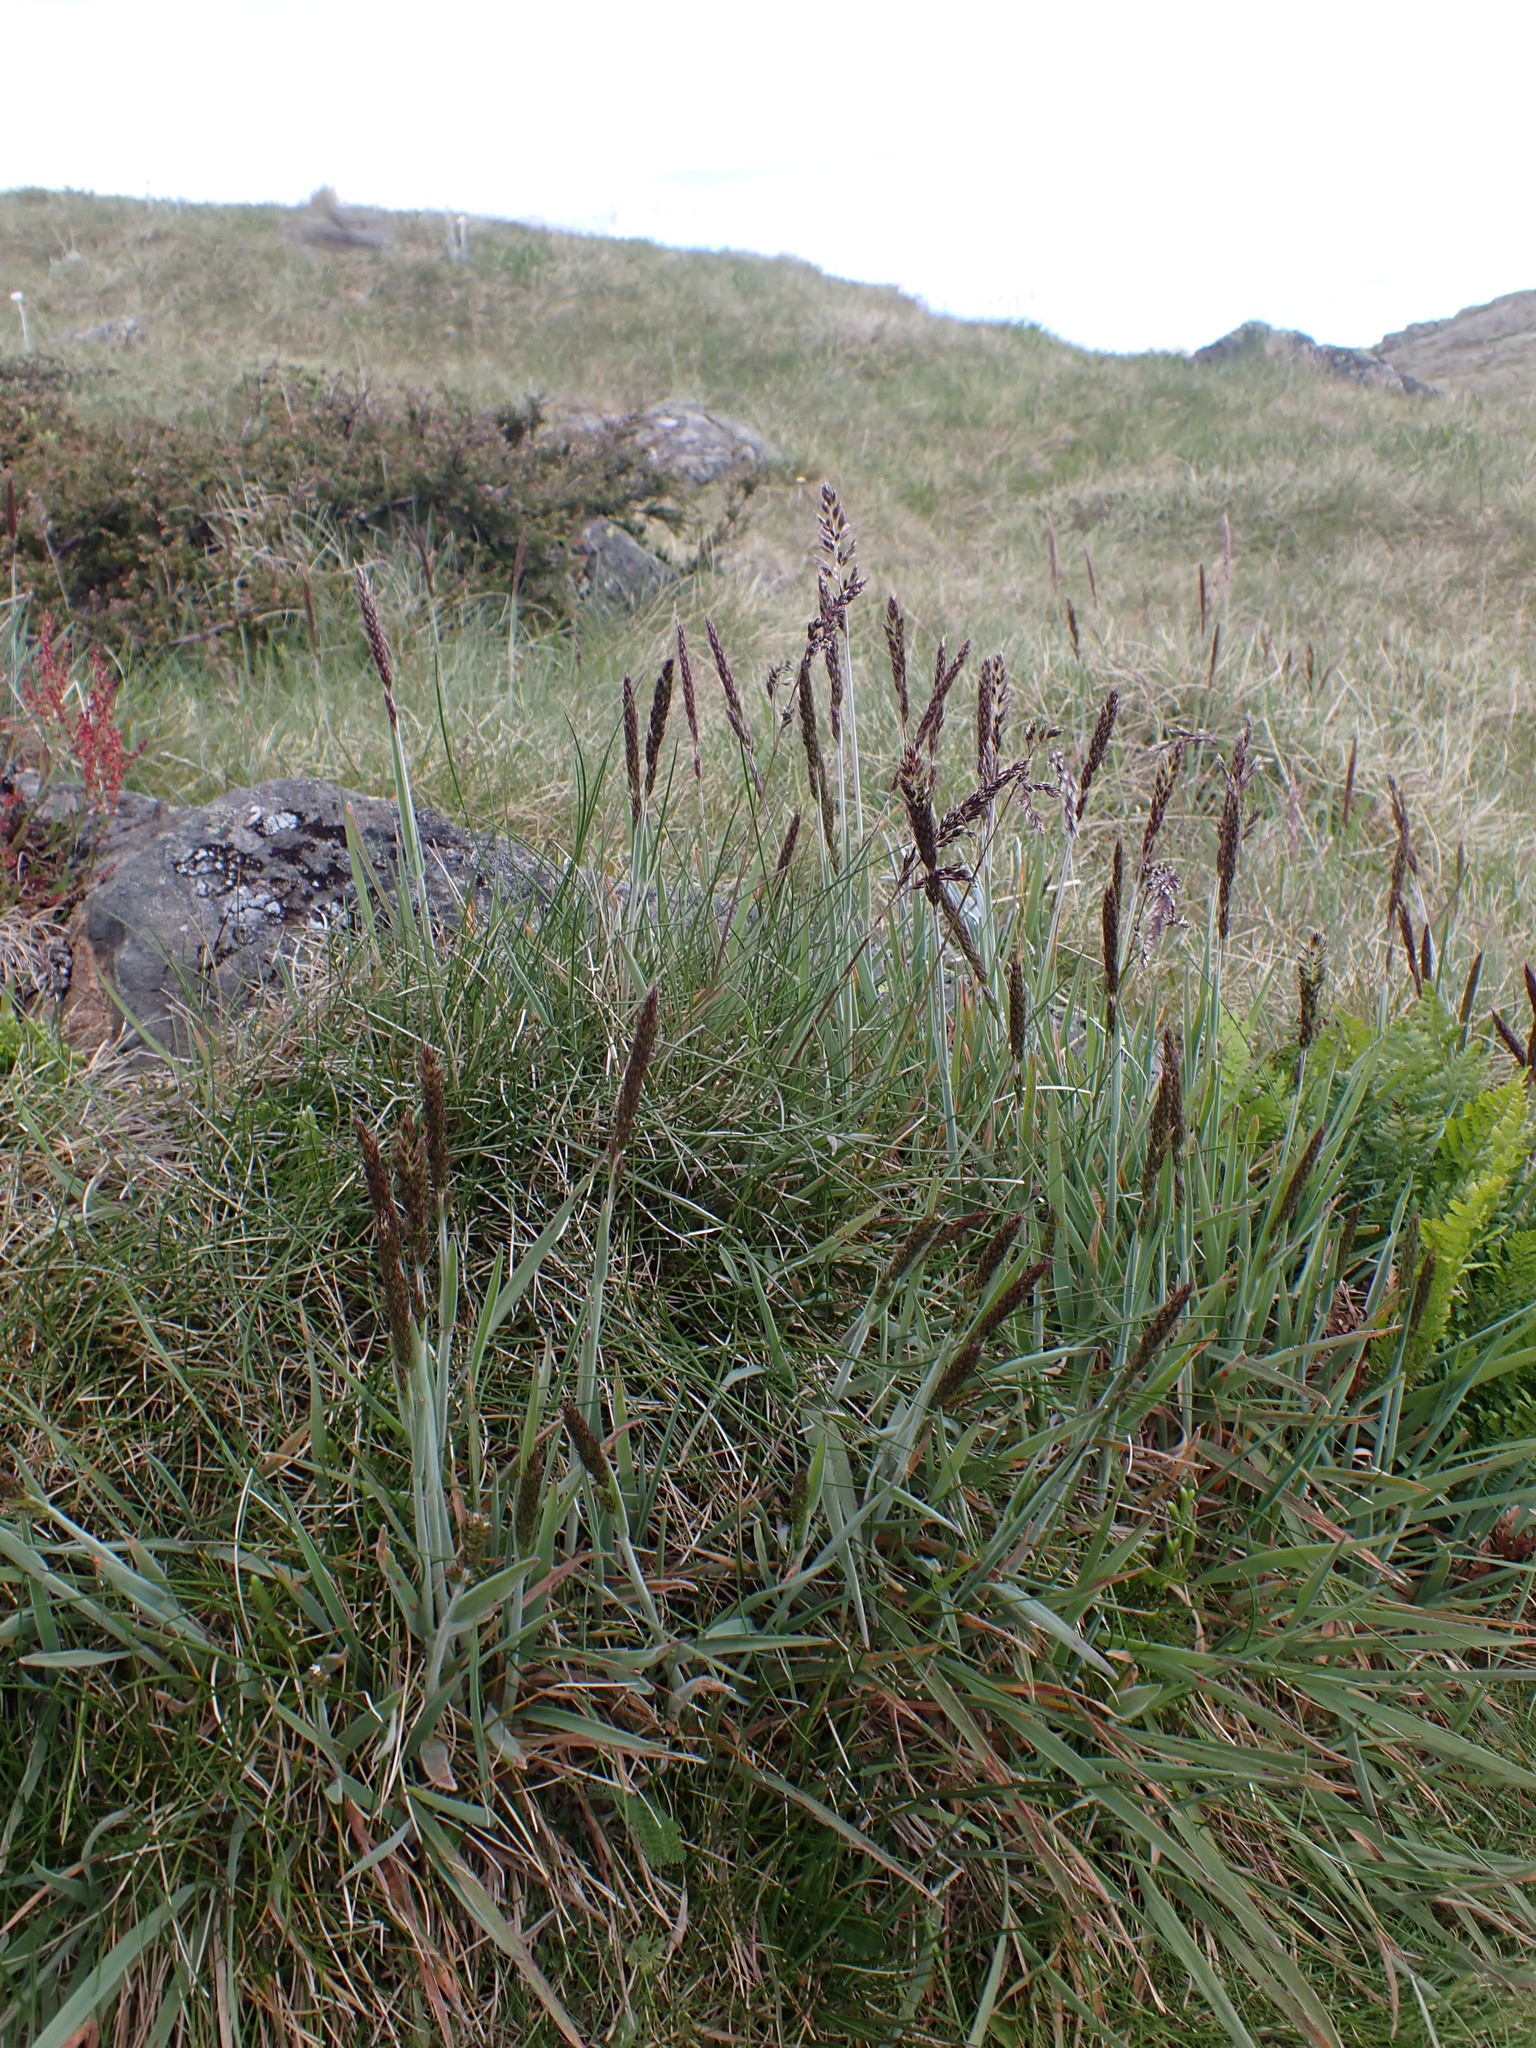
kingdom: Plantae
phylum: Tracheophyta
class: Liliopsida
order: Poales
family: Poaceae
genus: Koeleria
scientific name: Koeleria spicata
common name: Mountain trisetum
